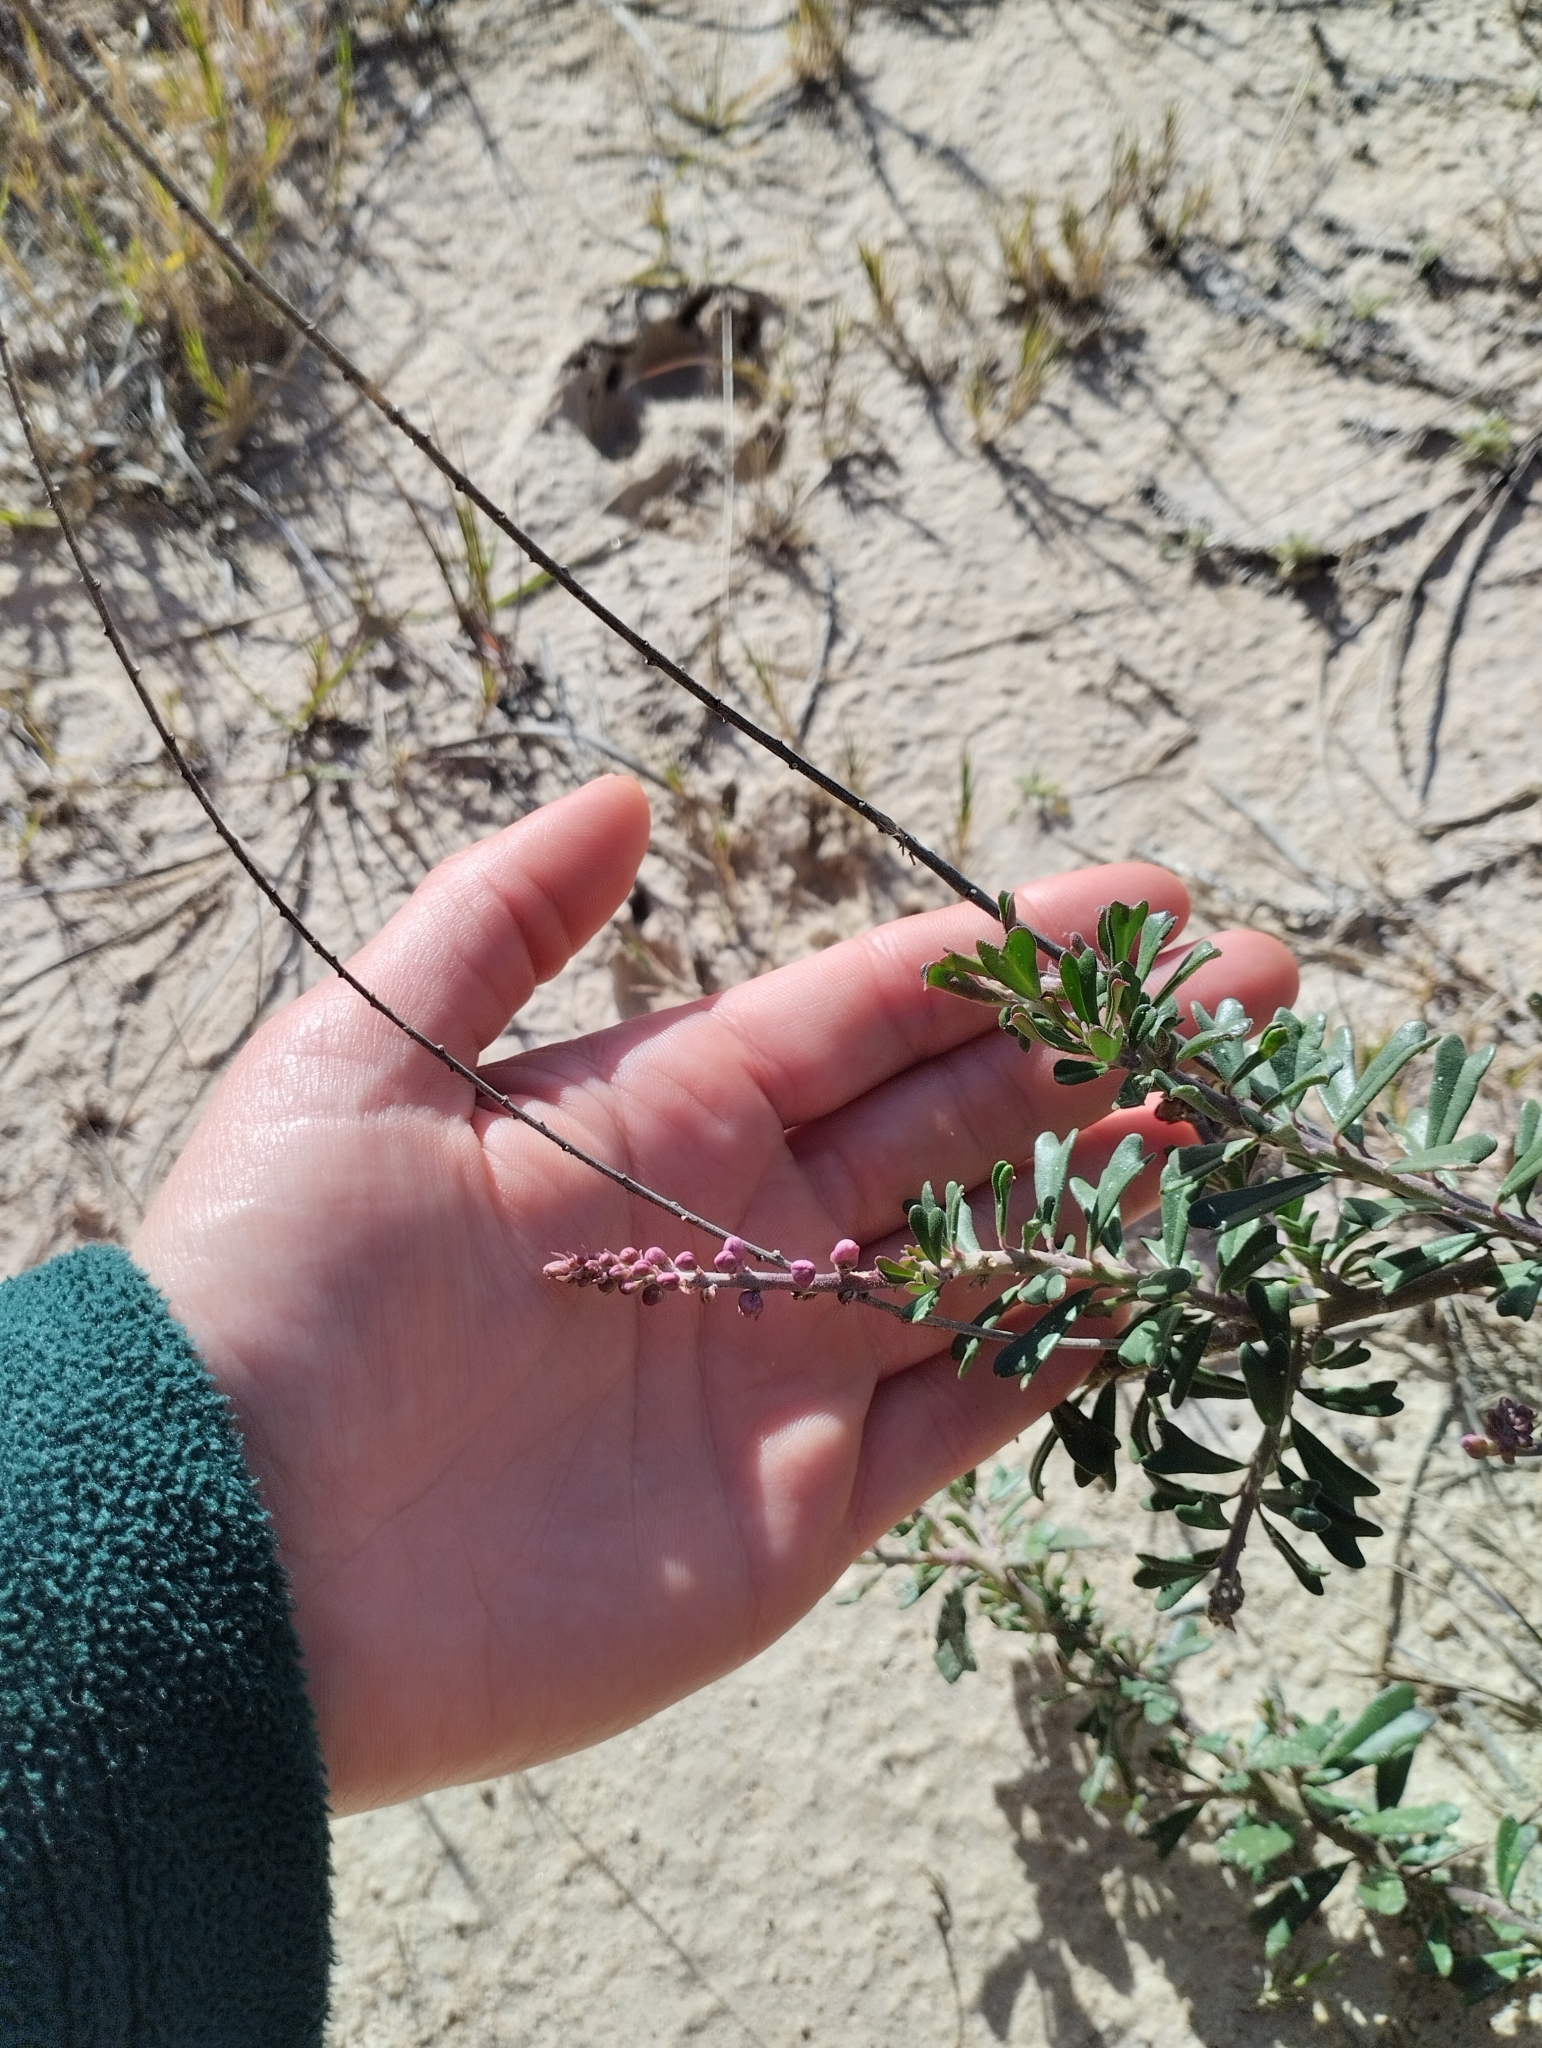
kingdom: Plantae
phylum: Tracheophyta
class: Magnoliopsida
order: Fabales
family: Polygalaceae
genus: Monnina
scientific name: Monnina cuneata
